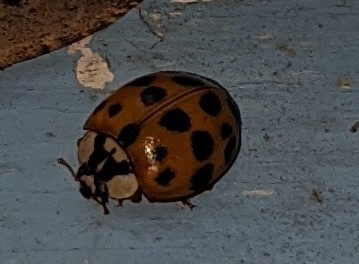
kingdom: Animalia
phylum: Arthropoda
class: Insecta
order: Coleoptera
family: Coccinellidae
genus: Harmonia
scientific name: Harmonia axyridis
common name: Harlequin ladybird
